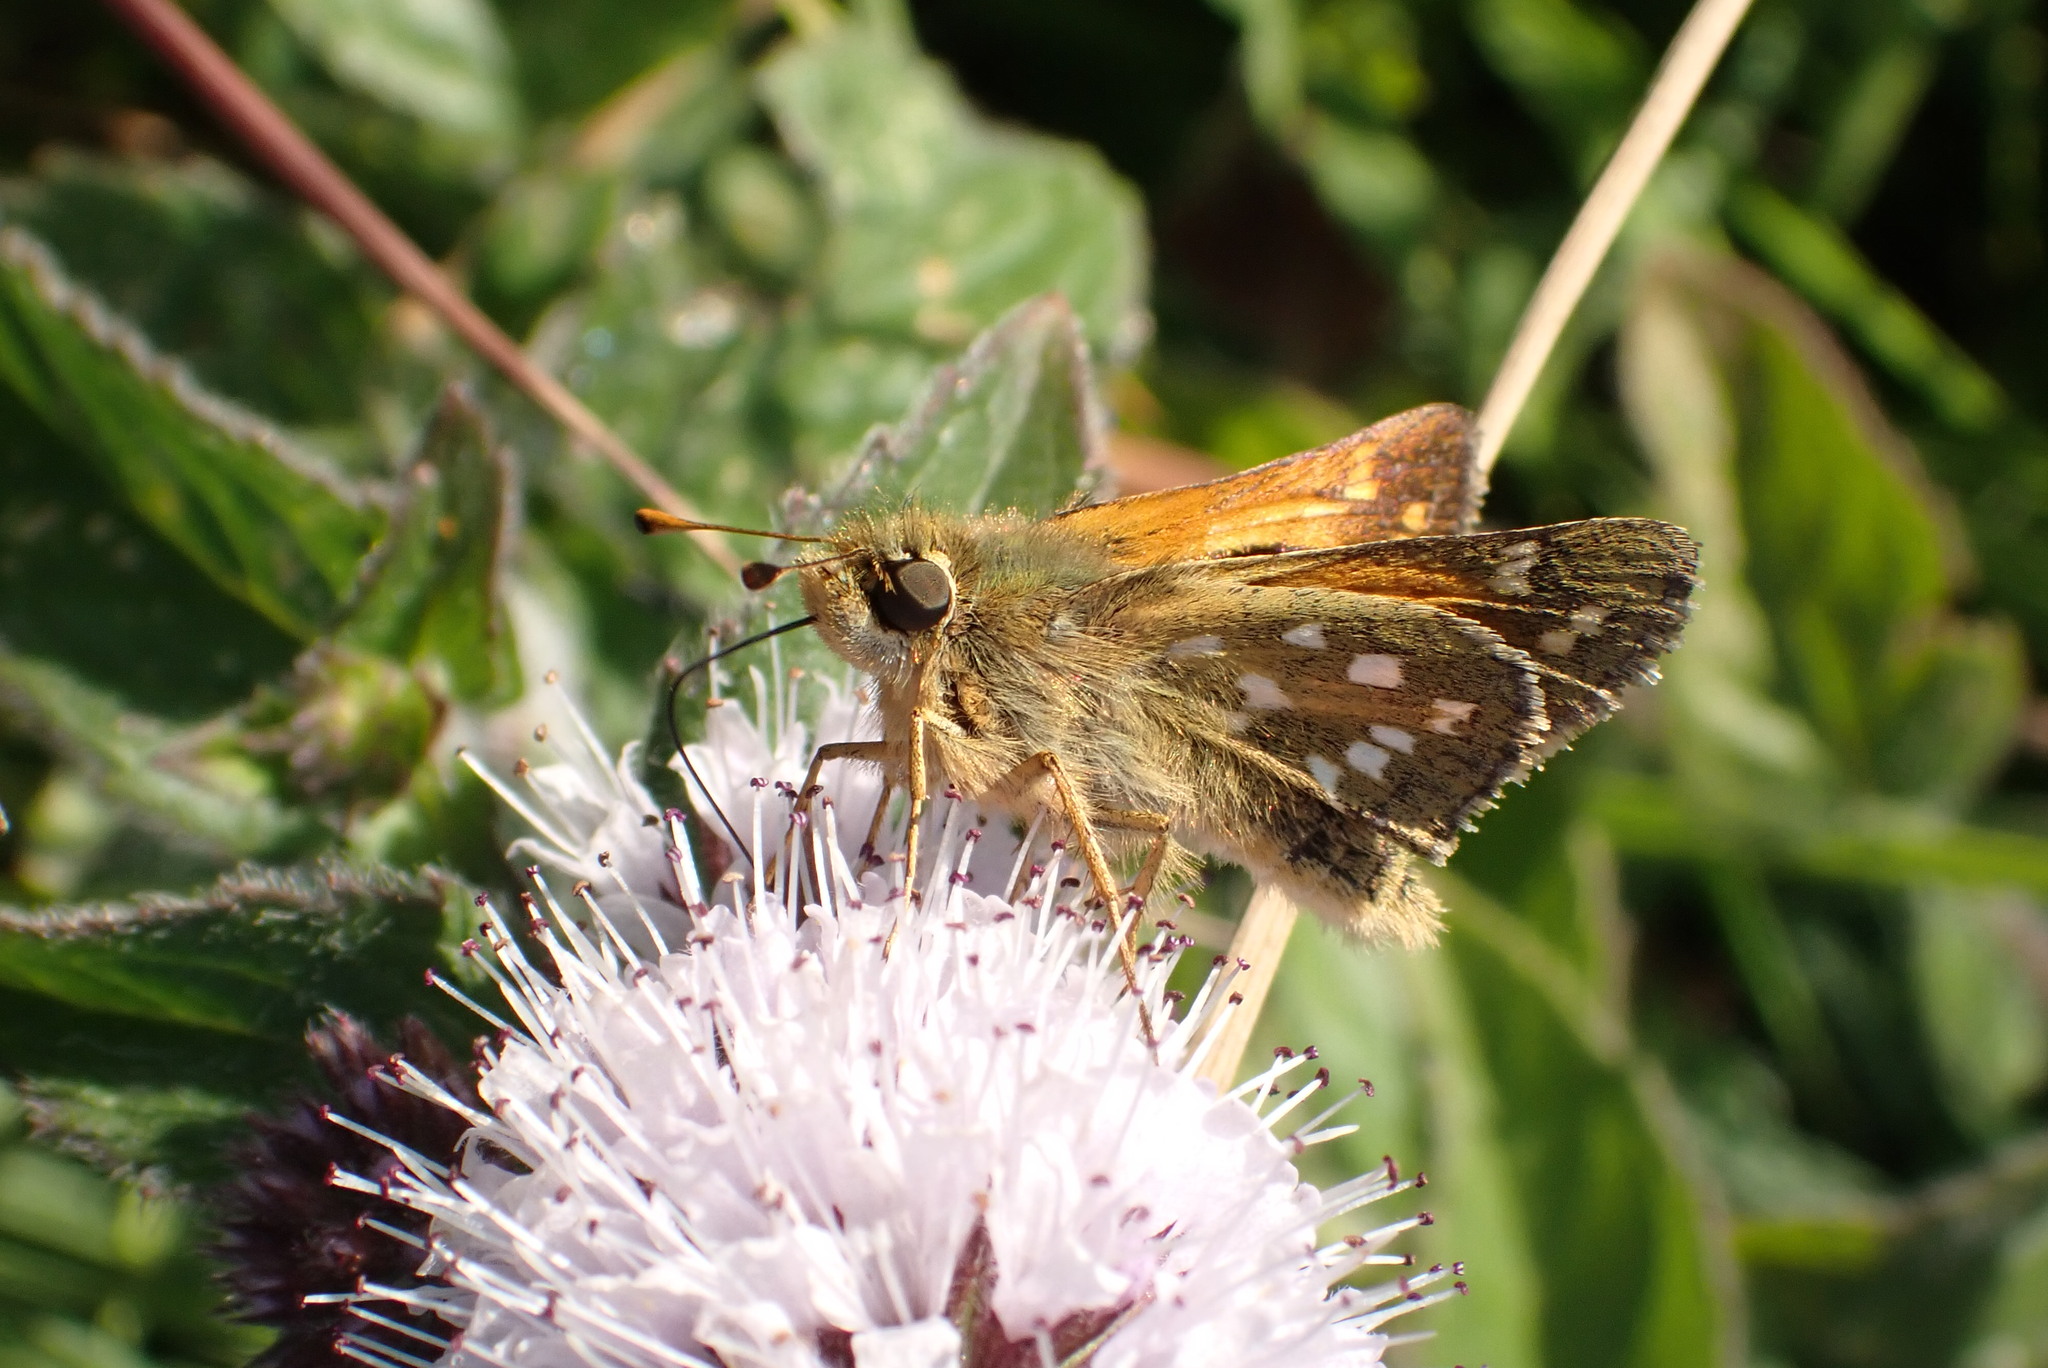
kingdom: Animalia
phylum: Arthropoda
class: Insecta
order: Lepidoptera
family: Hesperiidae
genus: Hesperia
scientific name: Hesperia comma
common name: Common branded skipper
